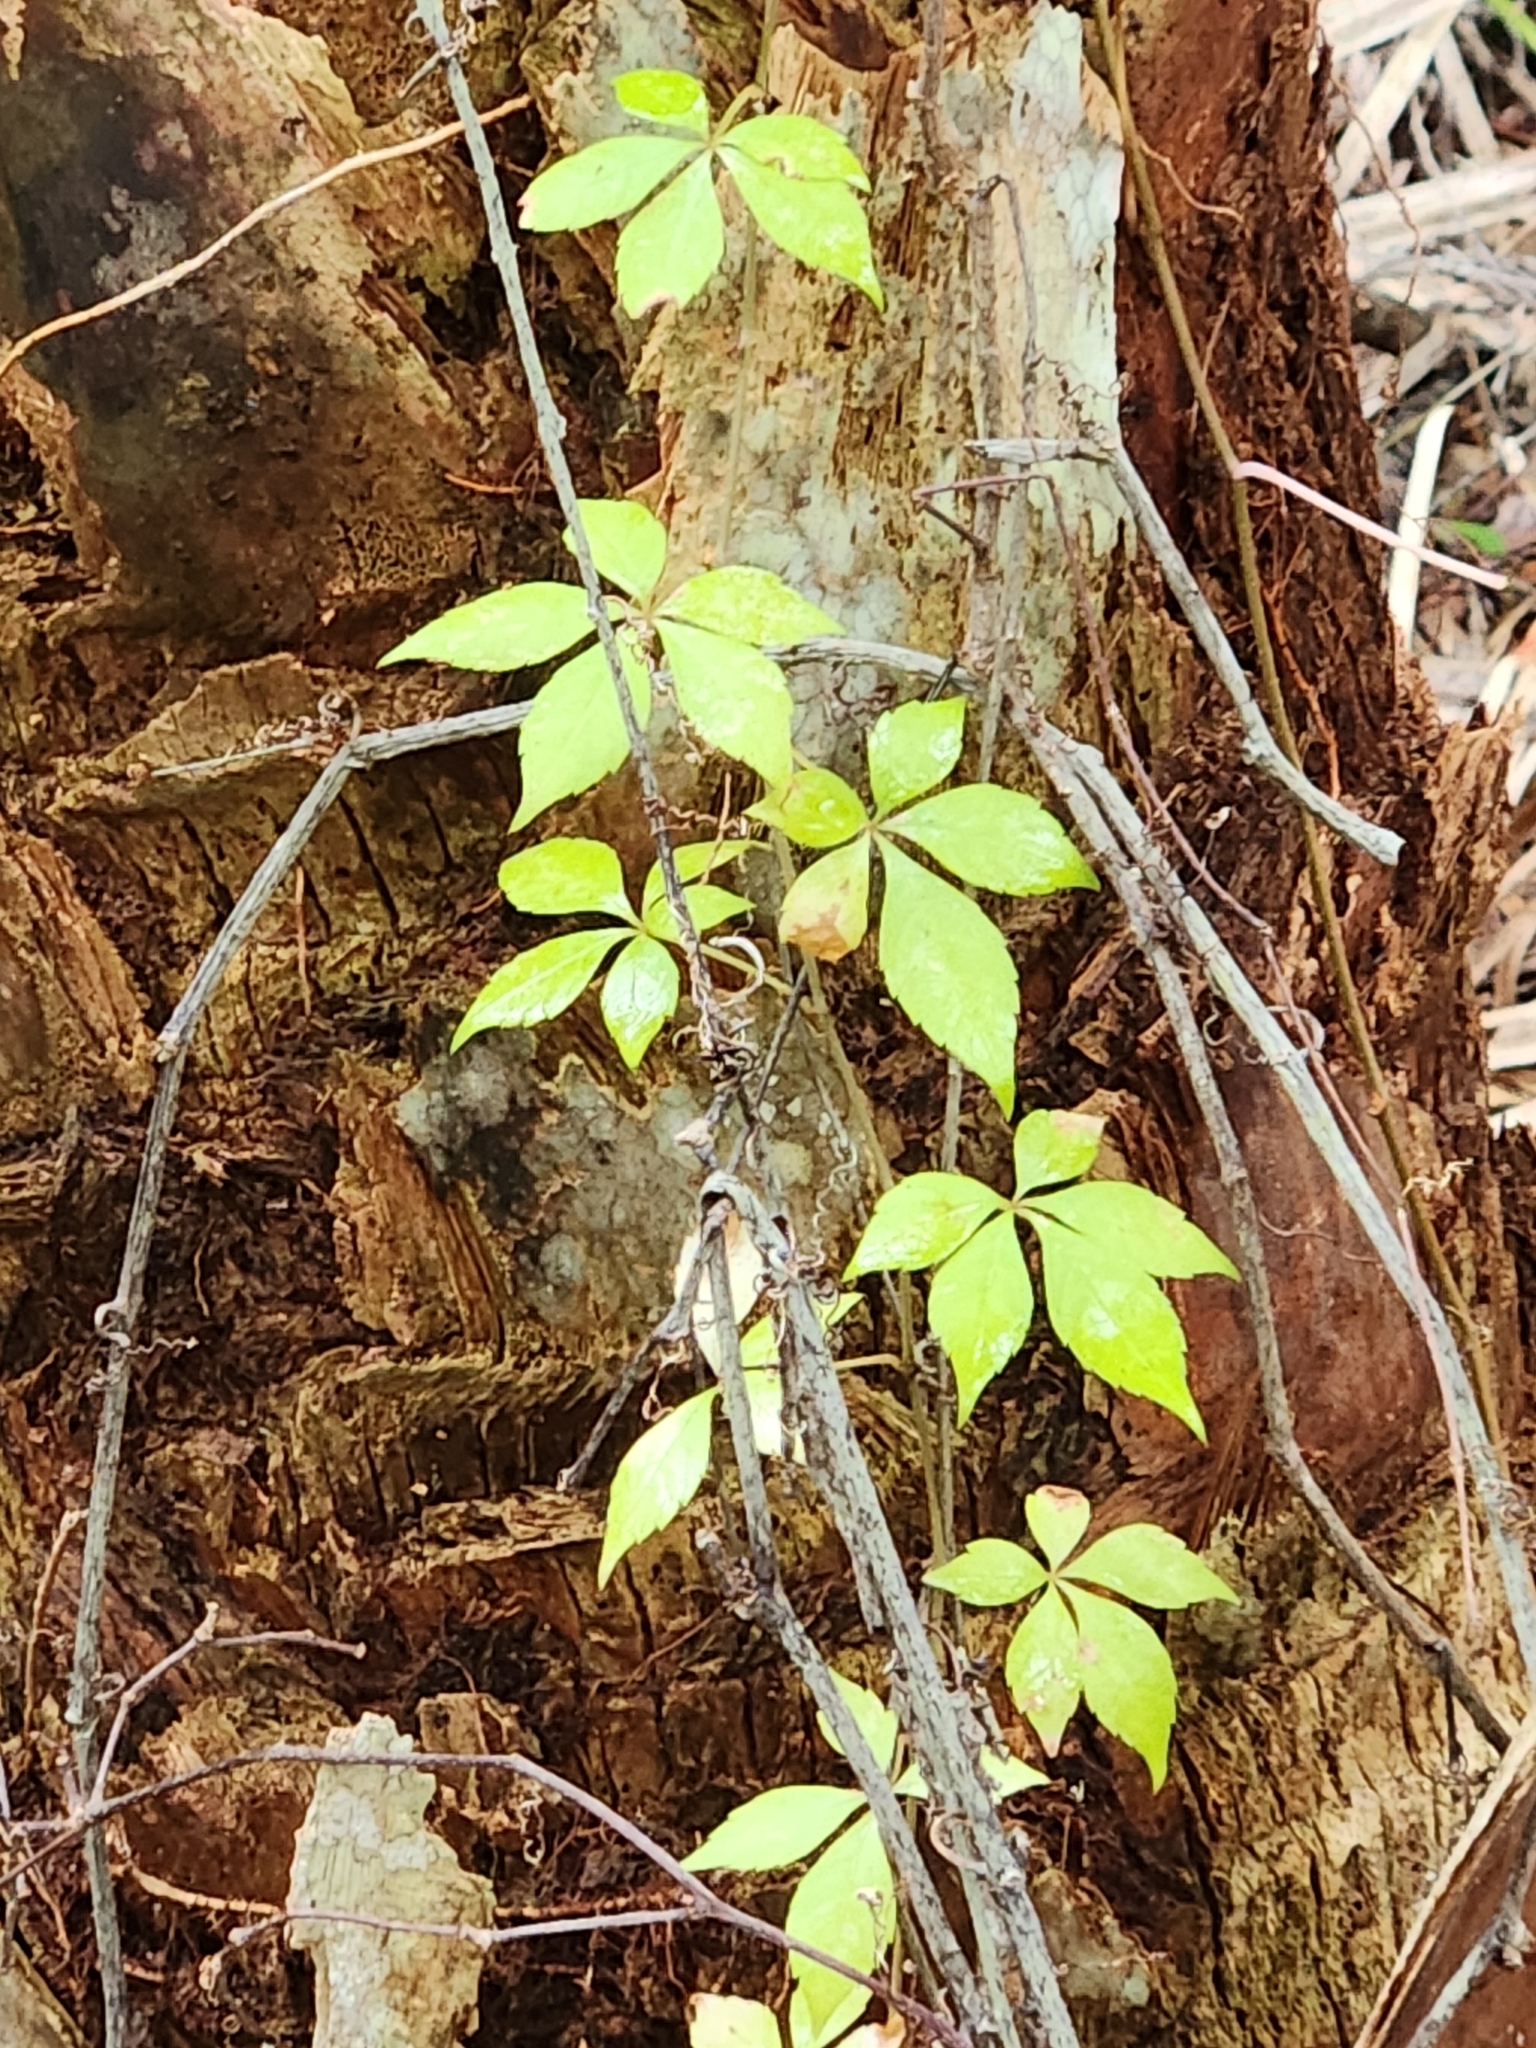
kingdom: Plantae
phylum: Tracheophyta
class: Magnoliopsida
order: Vitales
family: Vitaceae
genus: Parthenocissus
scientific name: Parthenocissus quinquefolia
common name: Virginia-creeper
